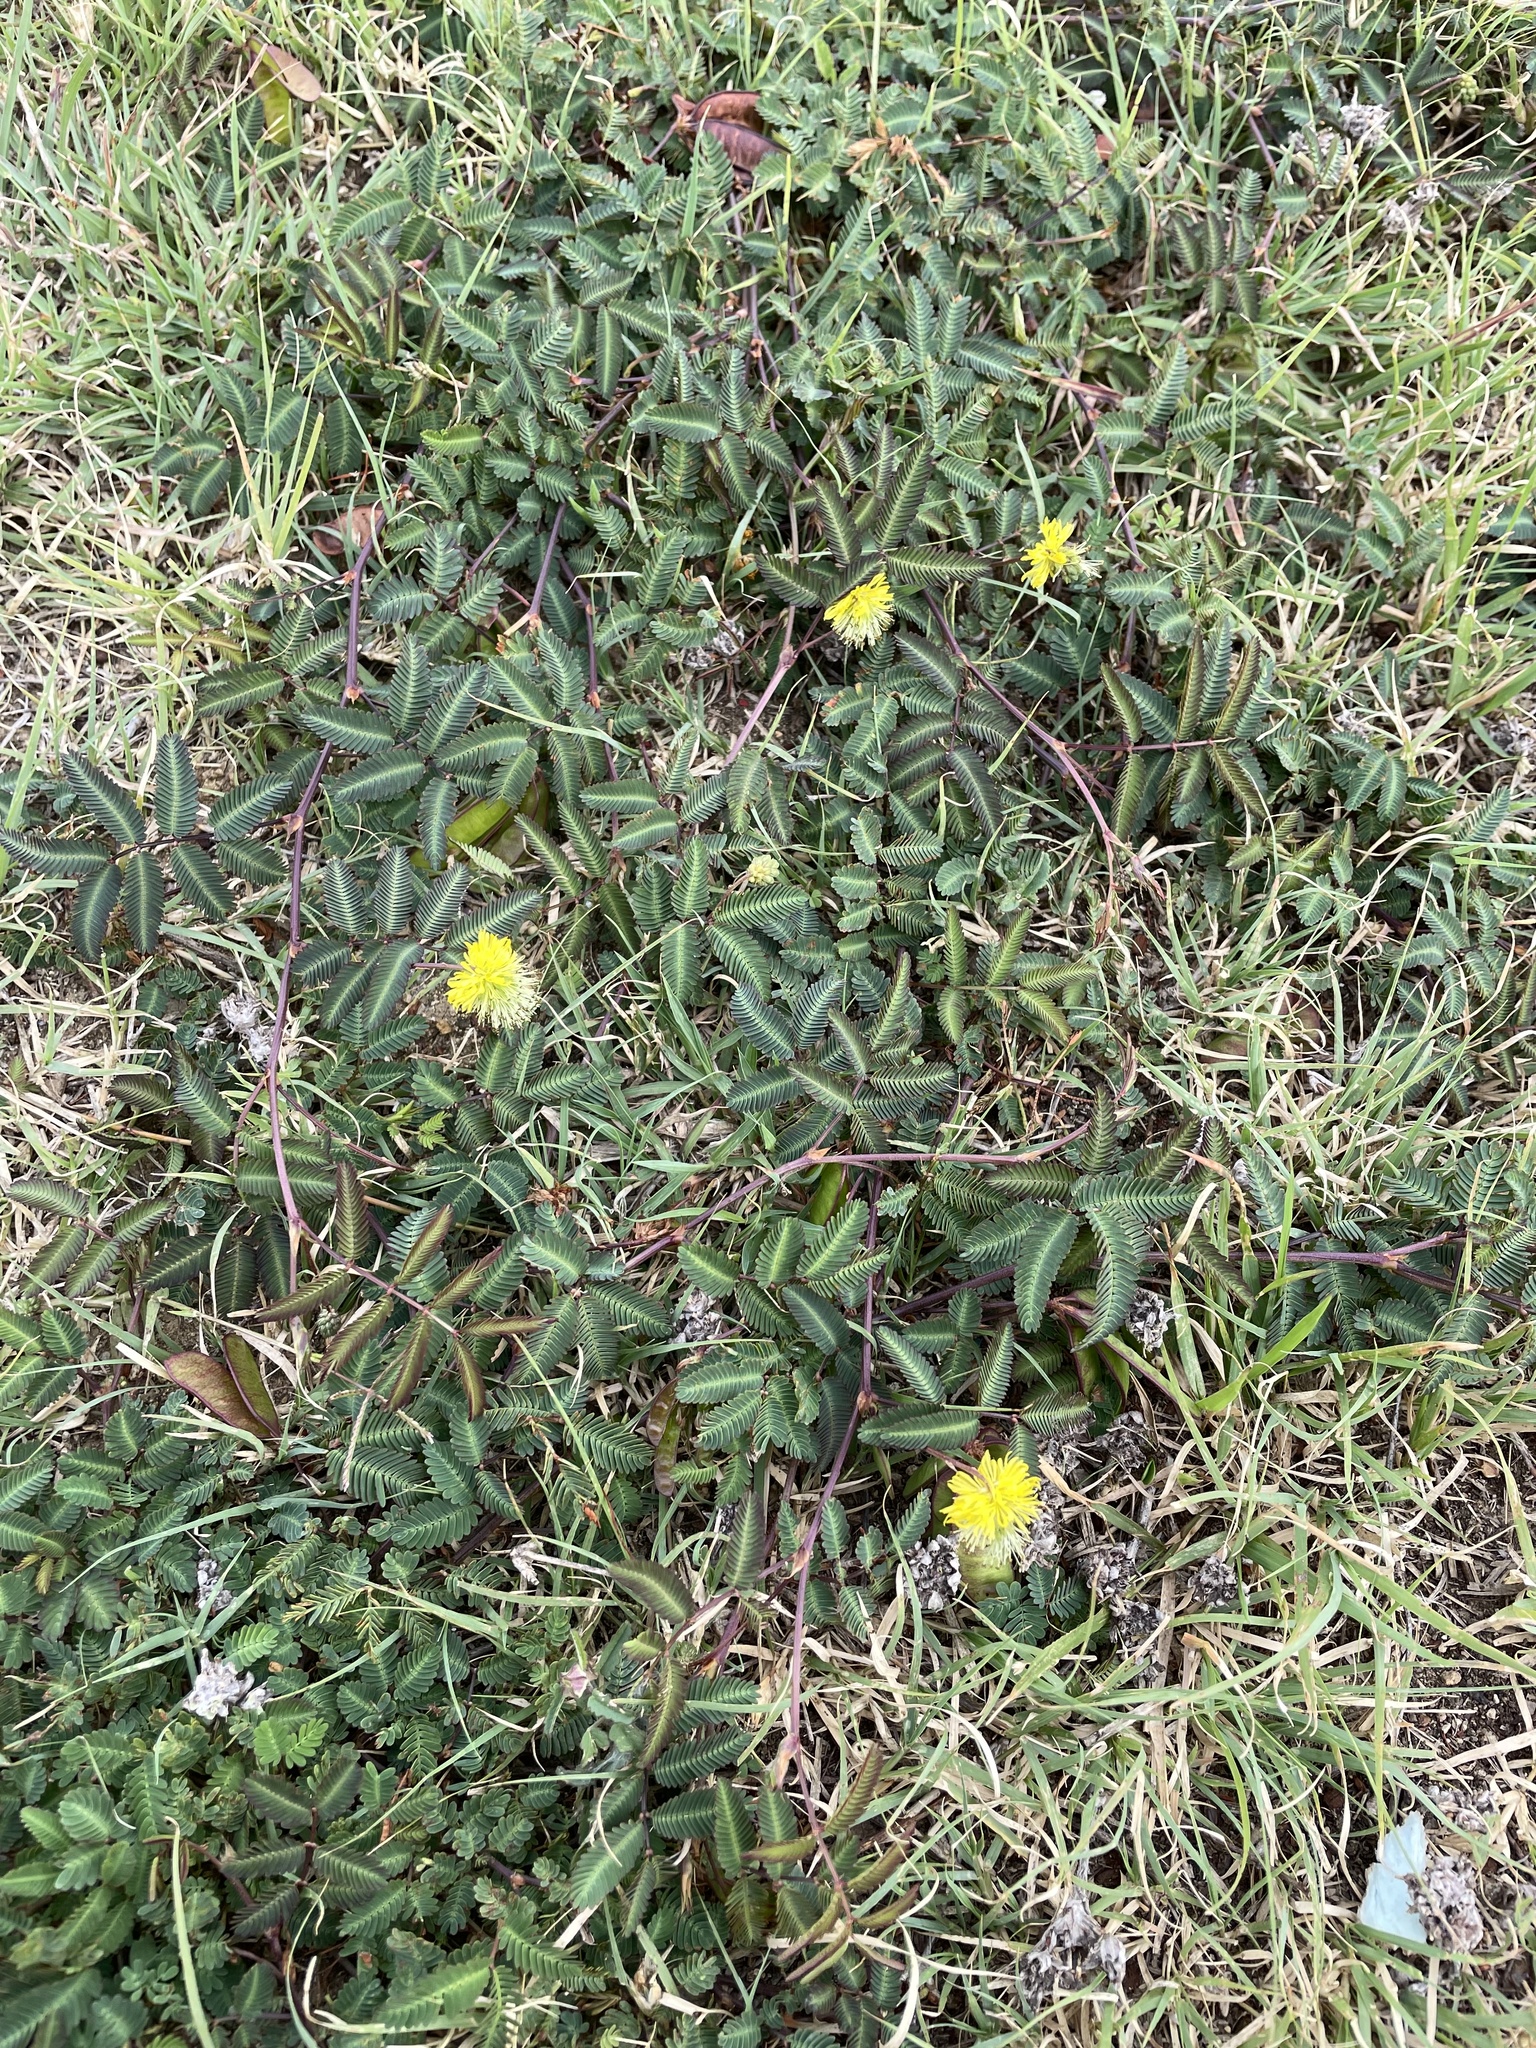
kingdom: Plantae
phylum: Tracheophyta
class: Magnoliopsida
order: Fabales
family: Fabaceae
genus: Neptunia
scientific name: Neptunia pubescens
